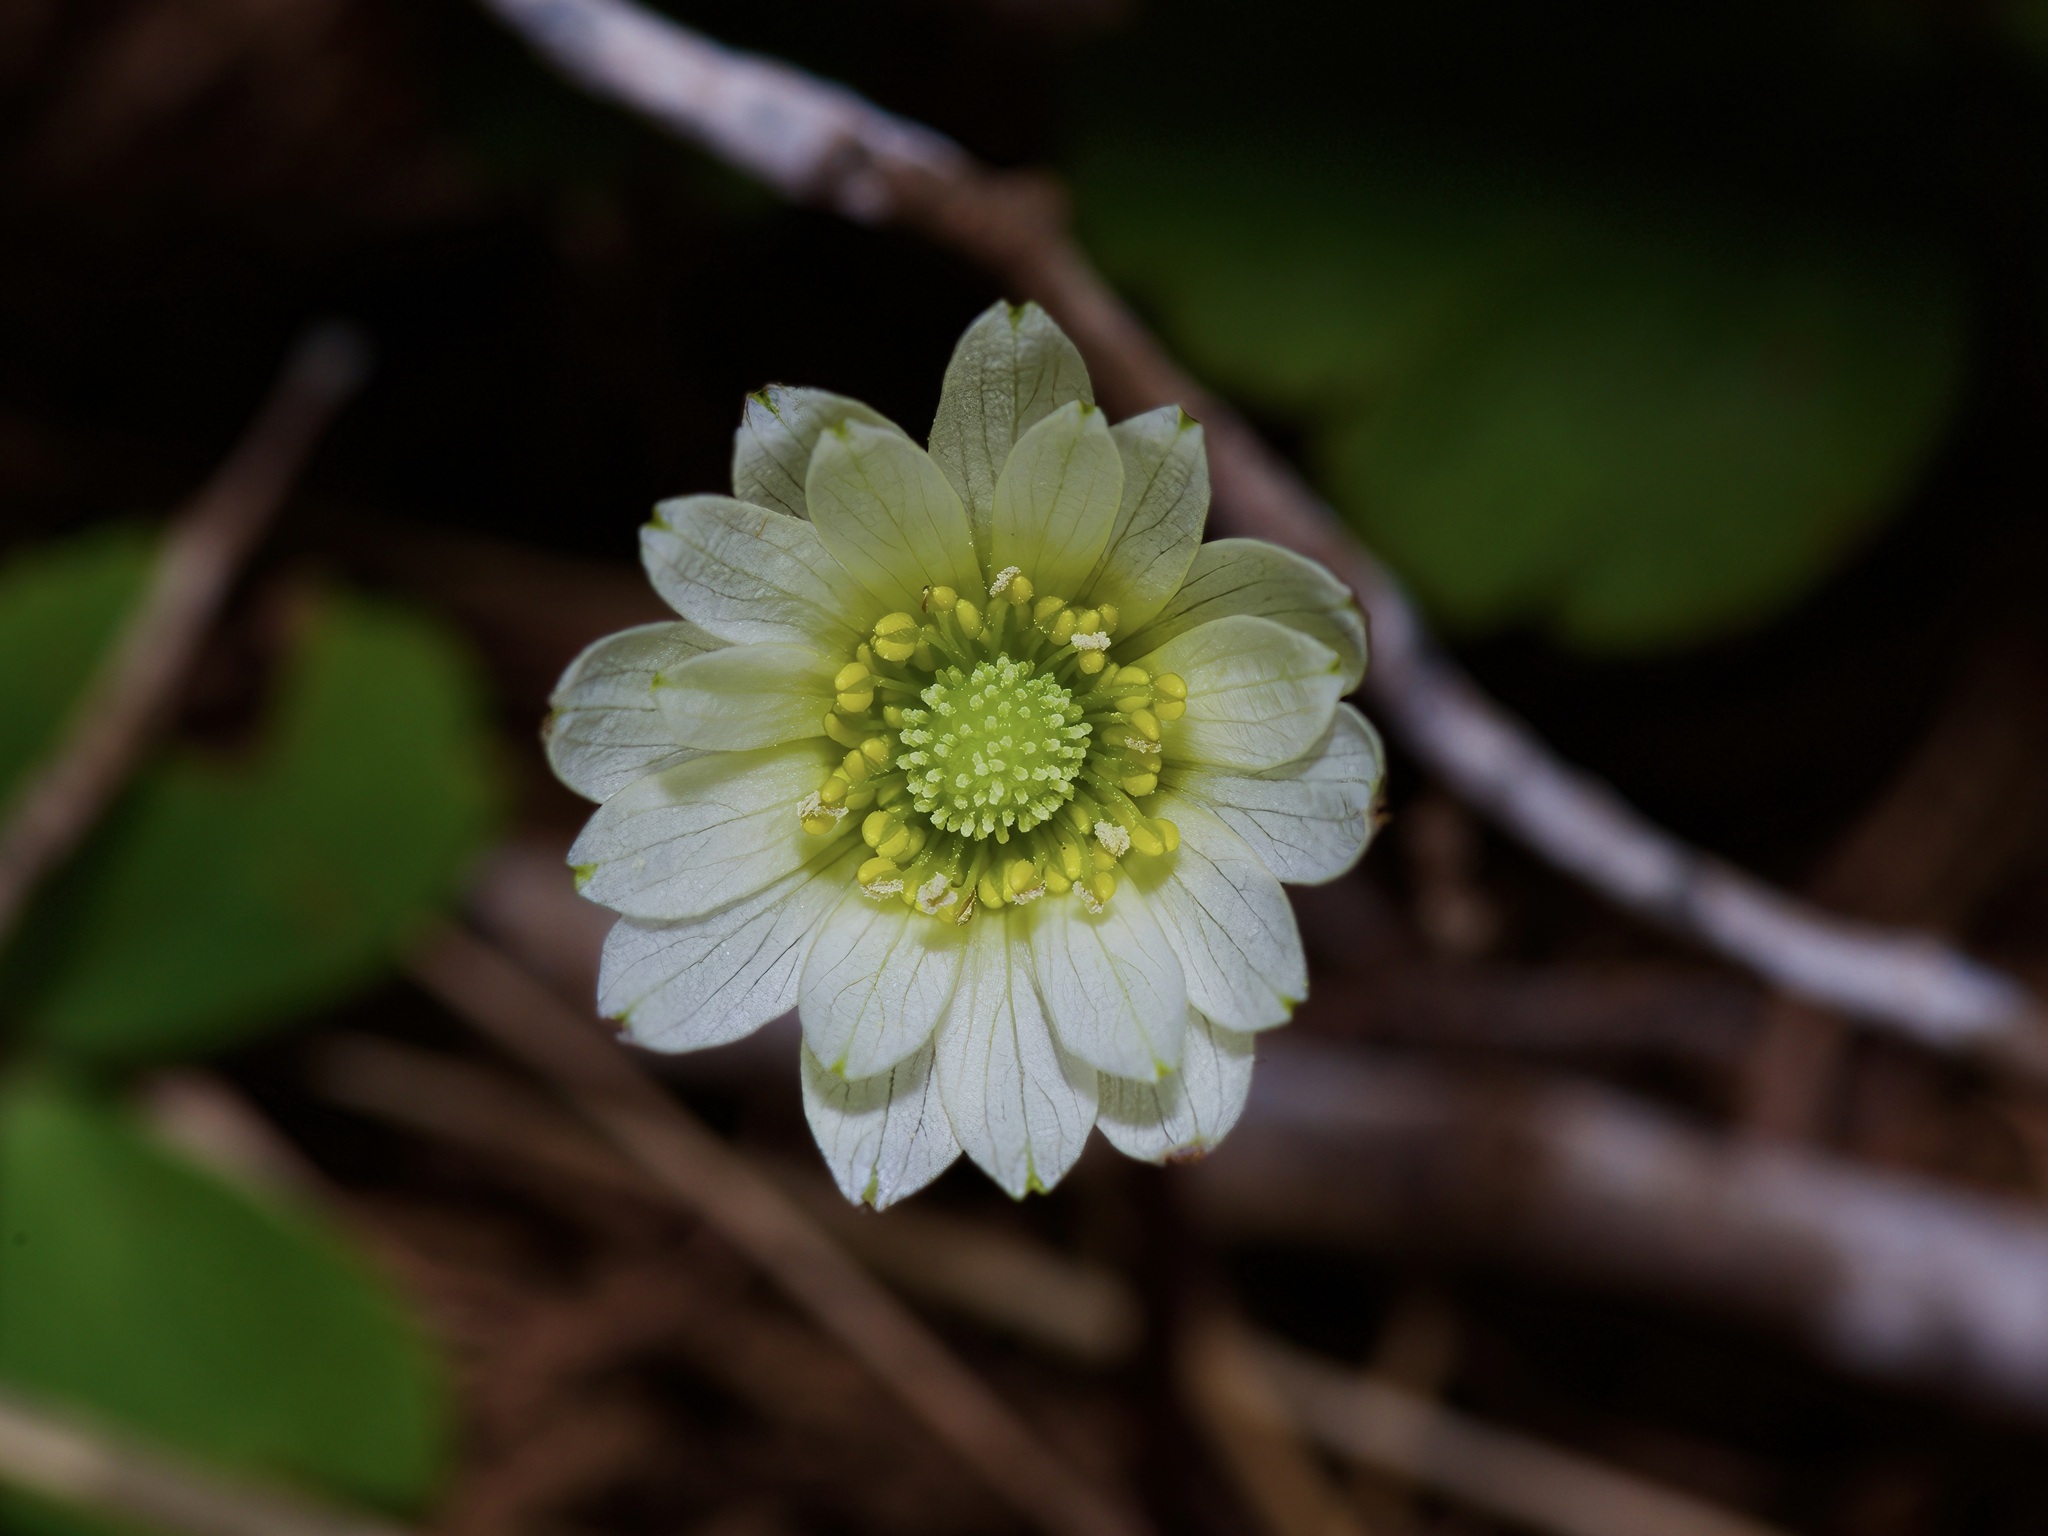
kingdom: Plantae
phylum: Tracheophyta
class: Magnoliopsida
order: Ranunculales
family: Ranunculaceae
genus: Anemone
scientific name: Anemone berlandieri
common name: Ten-petal anemone
